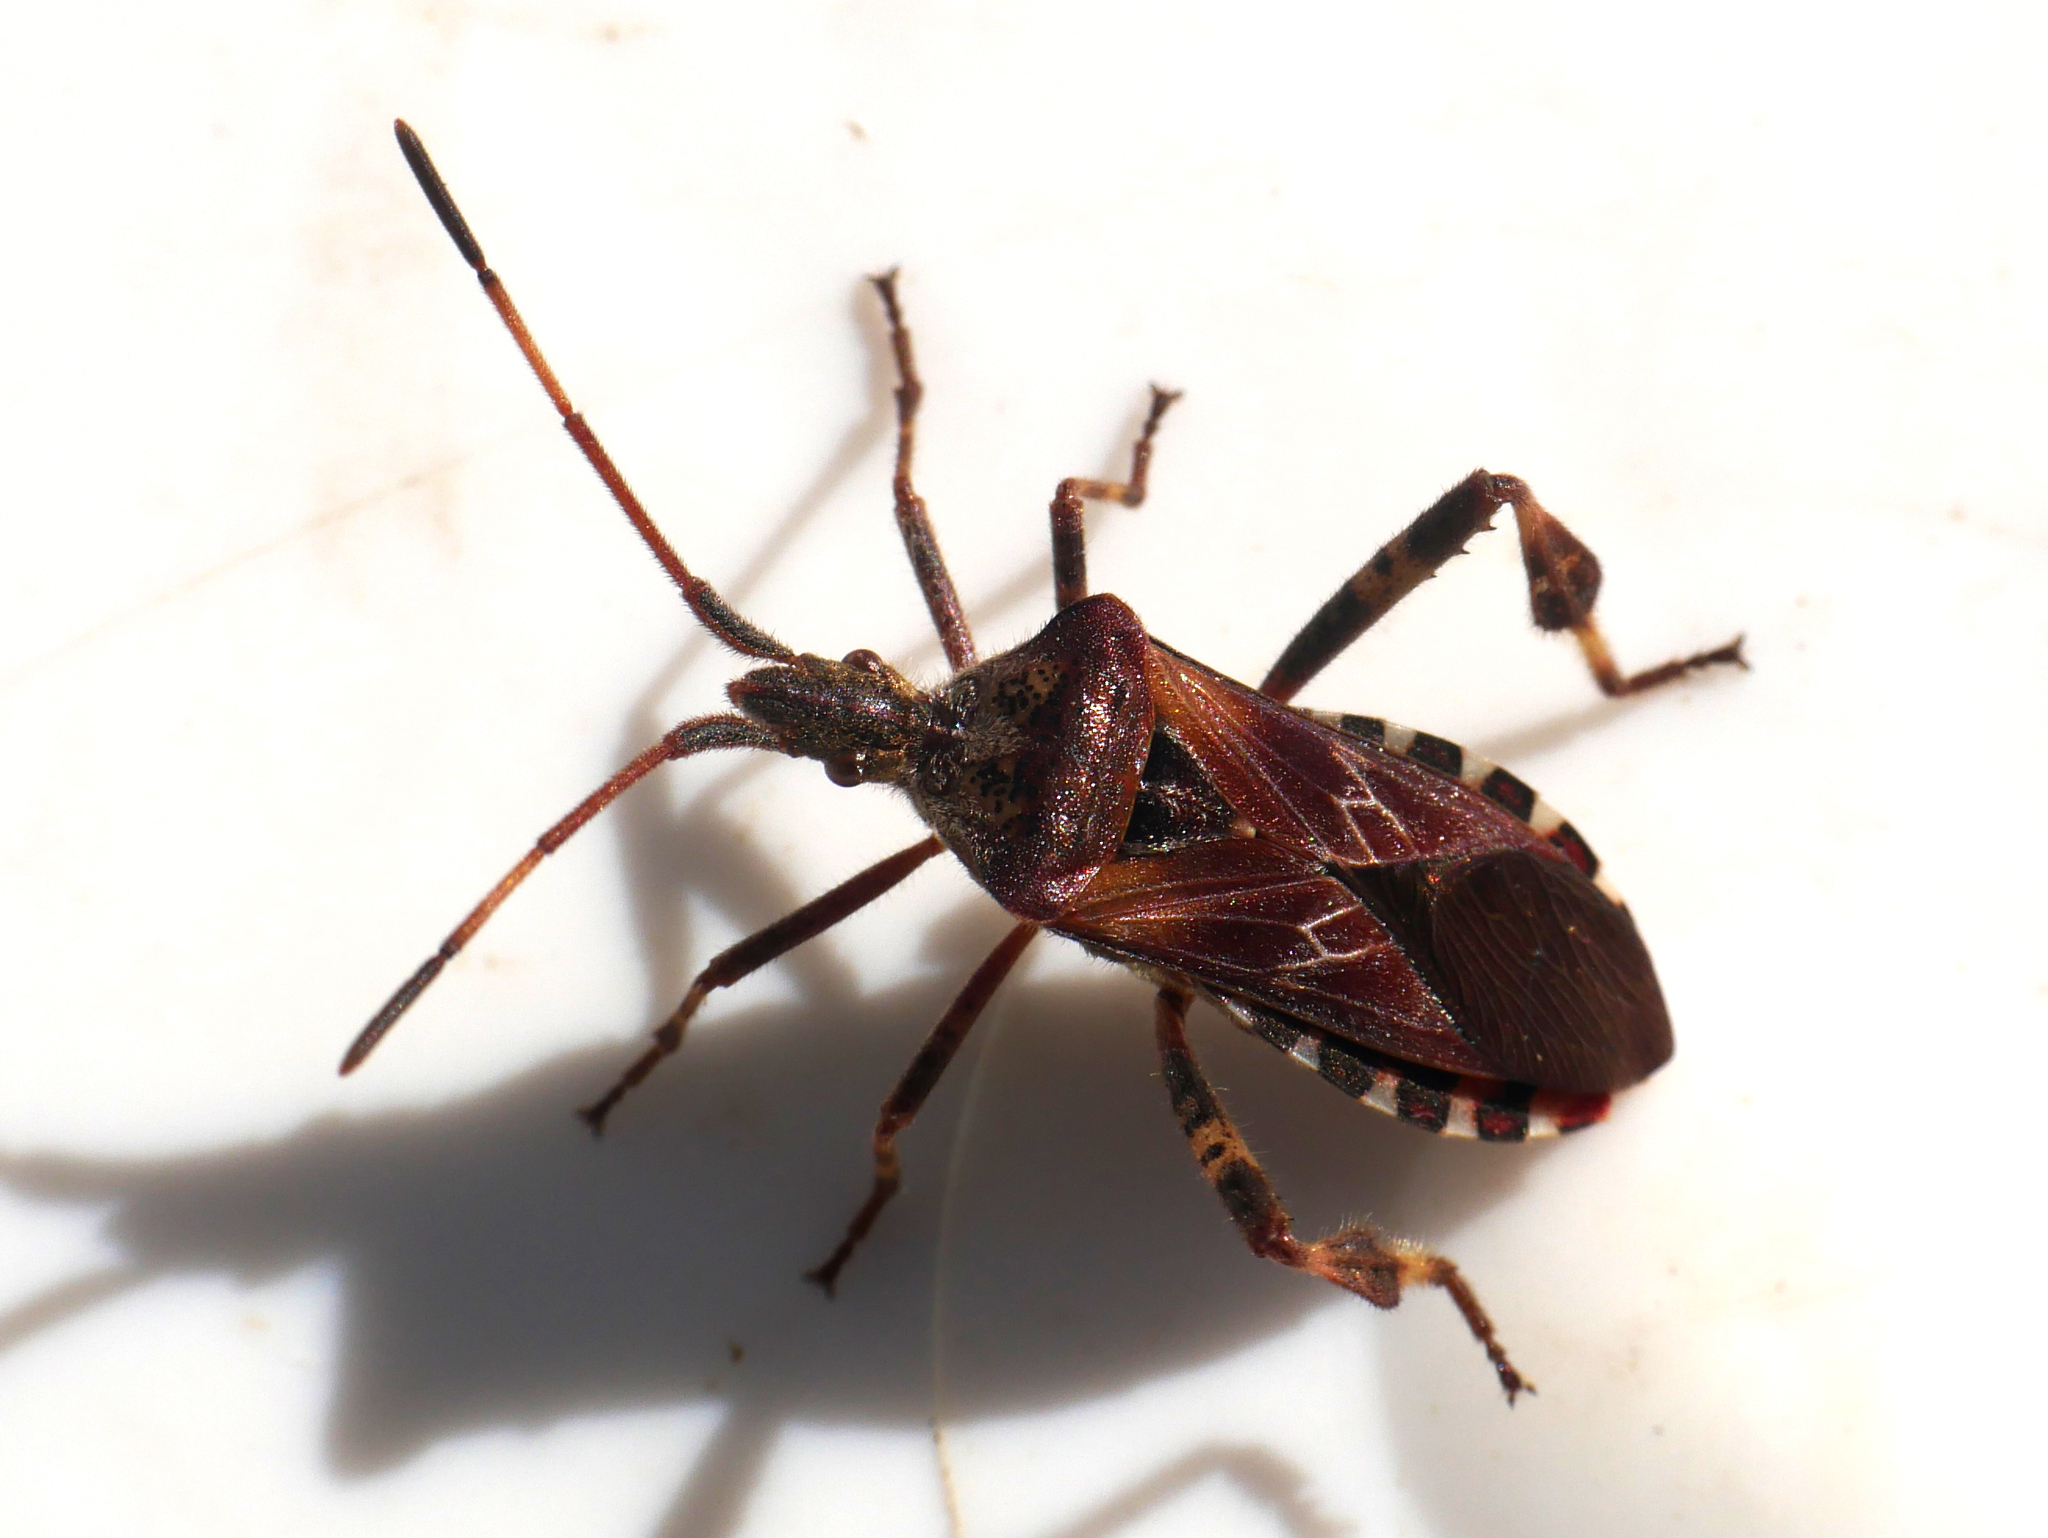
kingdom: Animalia
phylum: Arthropoda
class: Insecta
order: Hemiptera
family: Coreidae
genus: Leptoglossus
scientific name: Leptoglossus occidentalis
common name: Western conifer-seed bug
